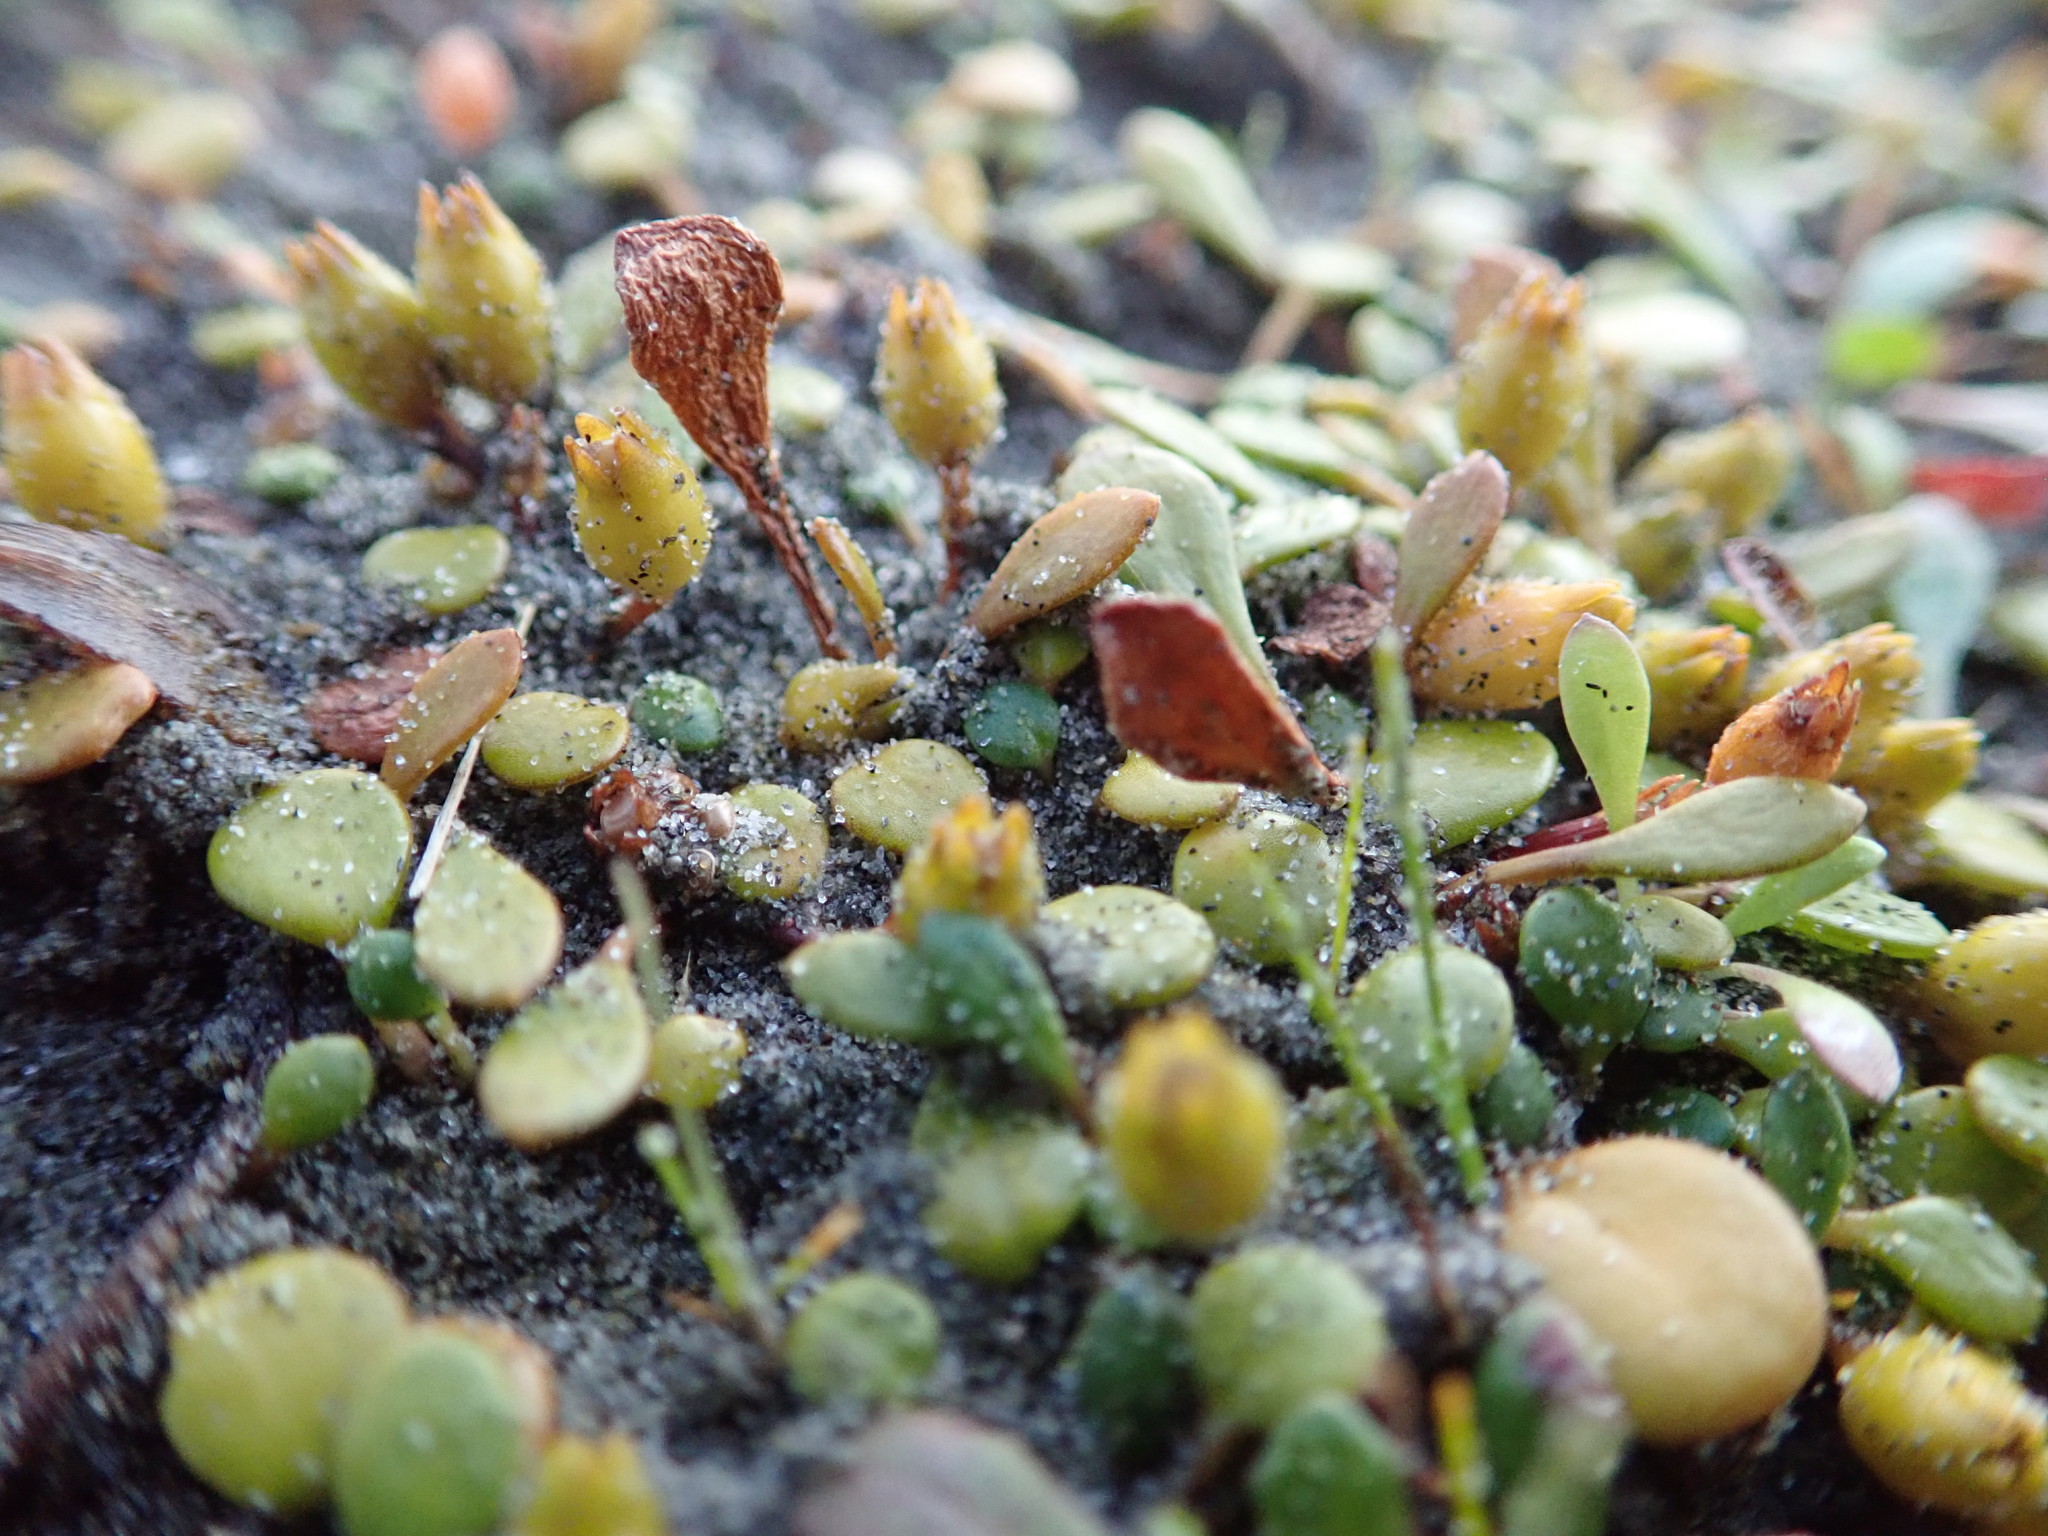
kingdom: Plantae
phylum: Tracheophyta
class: Magnoliopsida
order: Asterales
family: Goodeniaceae
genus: Goodenia
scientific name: Goodenia heenanii
